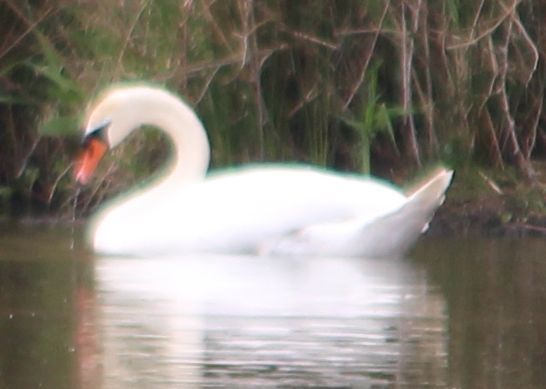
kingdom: Animalia
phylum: Chordata
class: Aves
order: Anseriformes
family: Anatidae
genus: Cygnus
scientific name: Cygnus olor
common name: Mute swan
